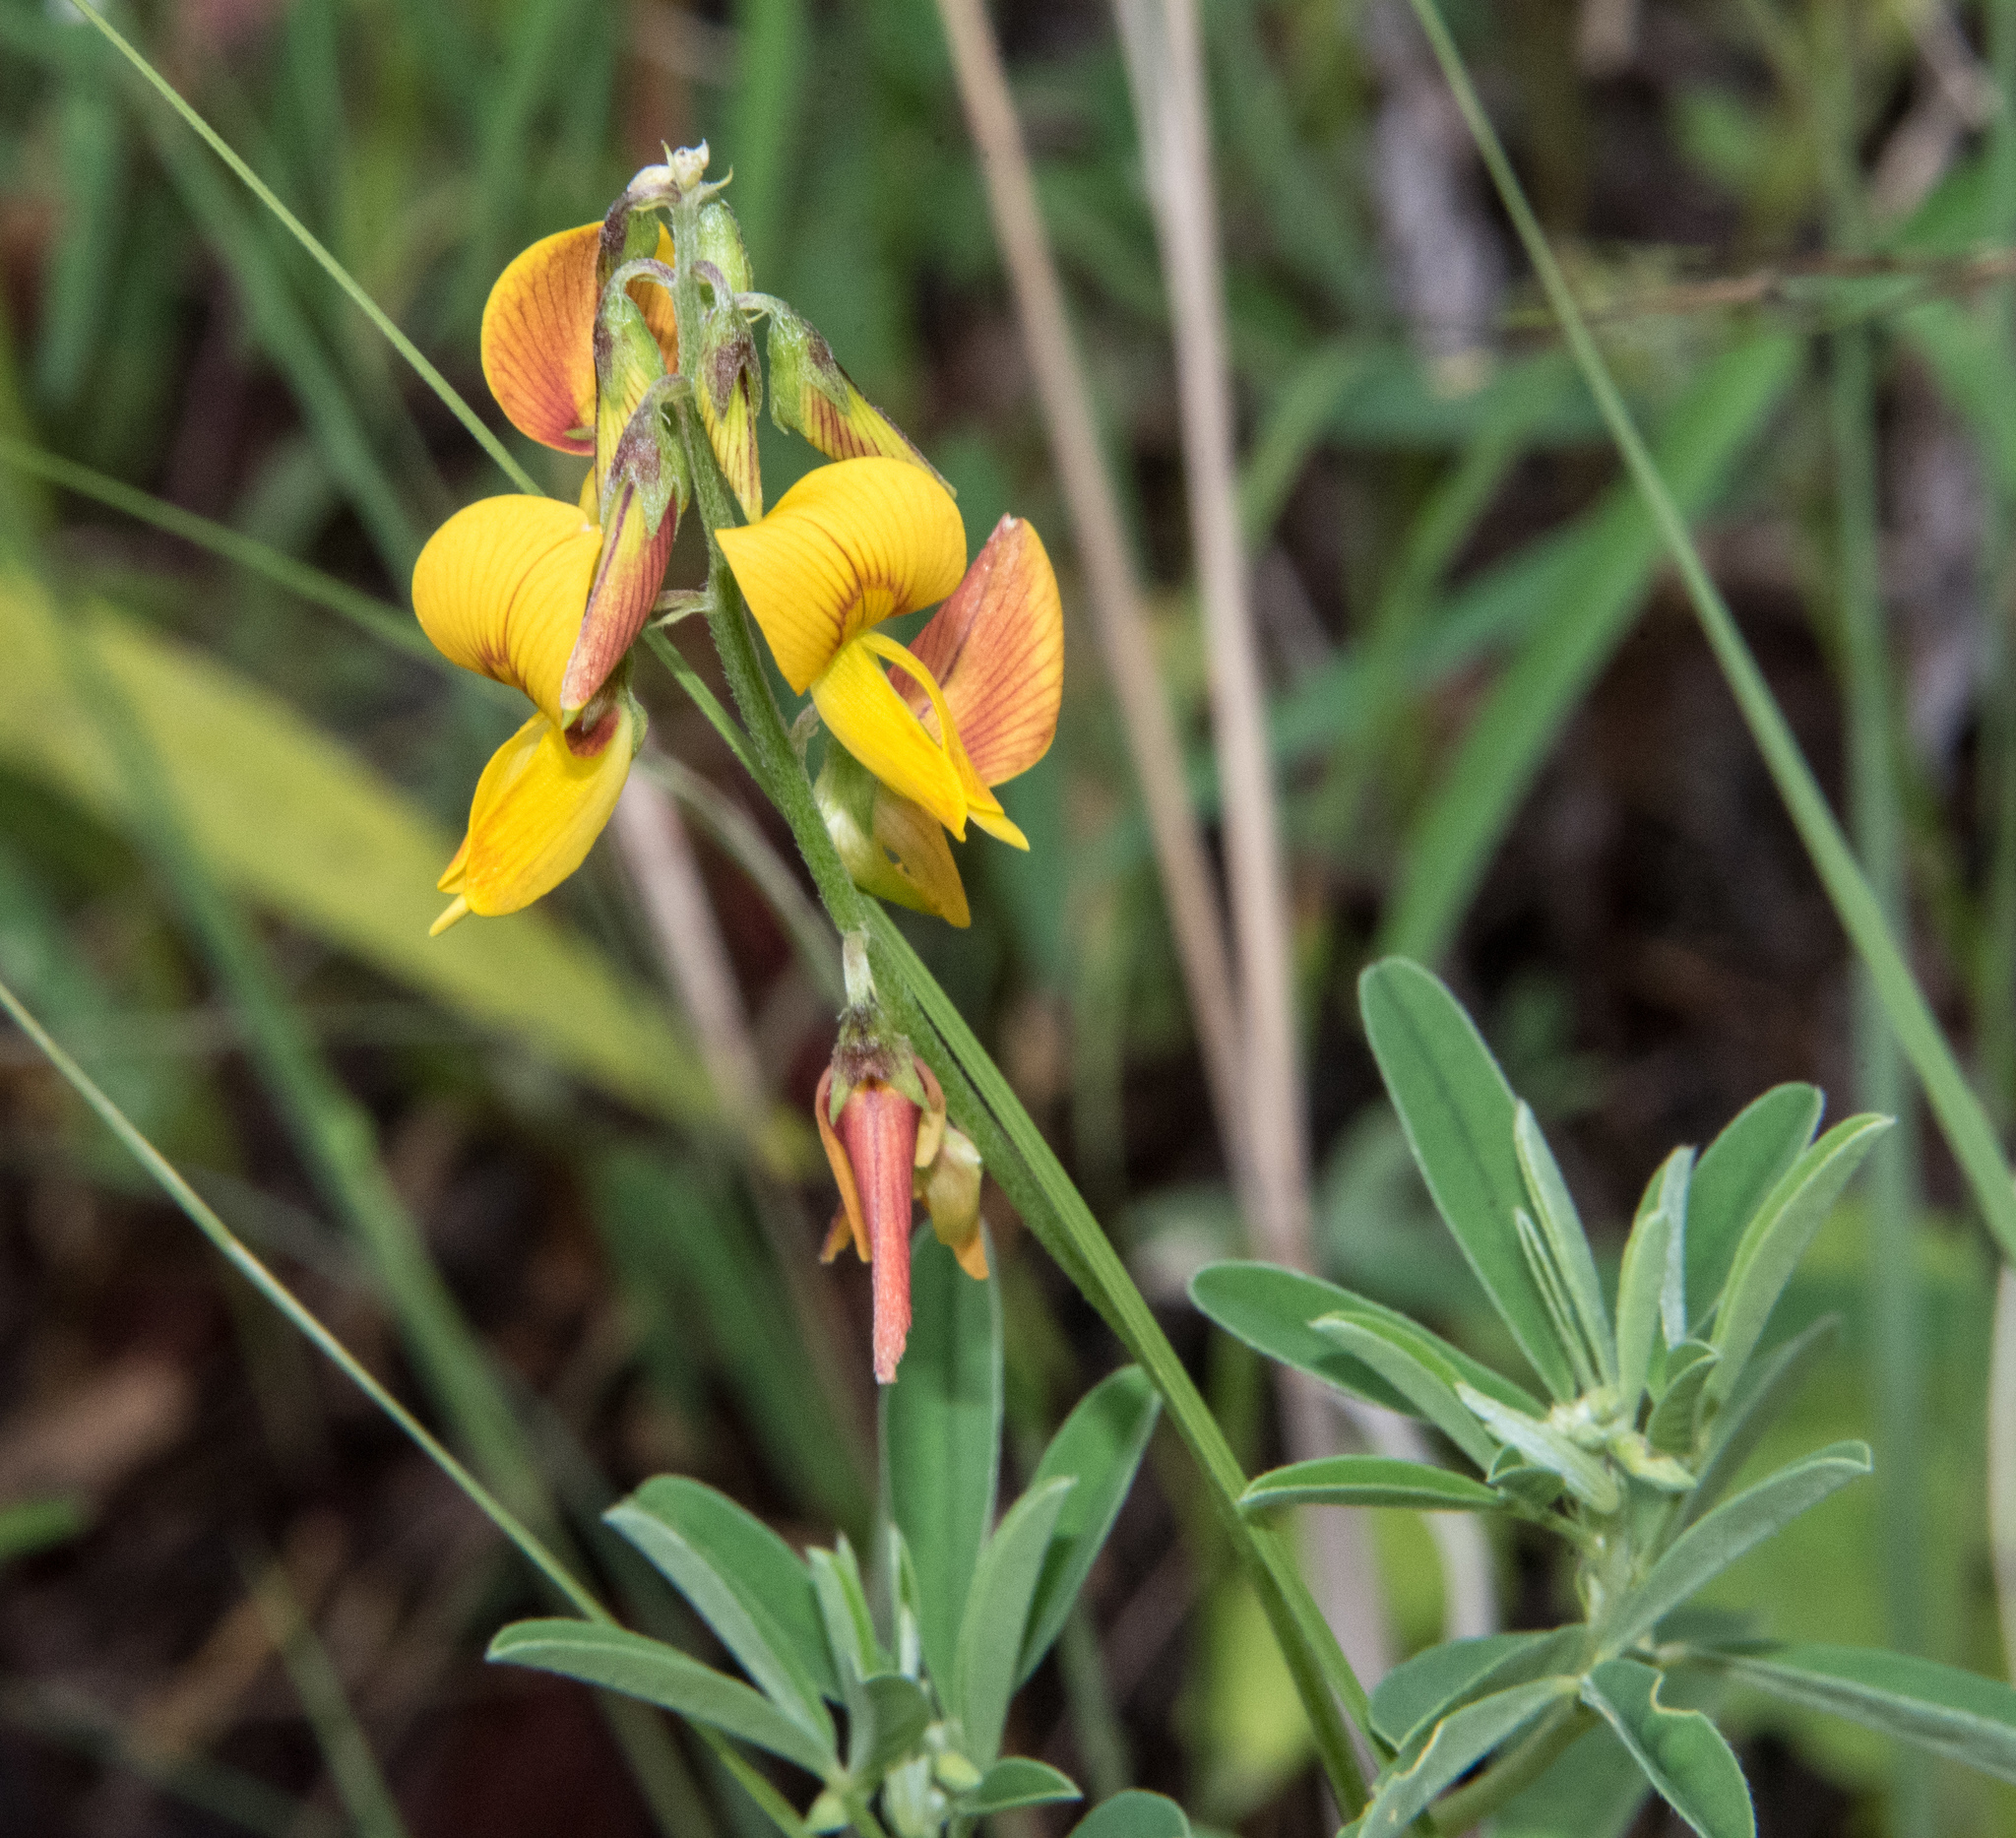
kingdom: Plantae
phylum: Tracheophyta
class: Magnoliopsida
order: Fabales
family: Fabaceae
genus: Crotalaria
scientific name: Crotalaria pumila
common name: Low rattlebox
